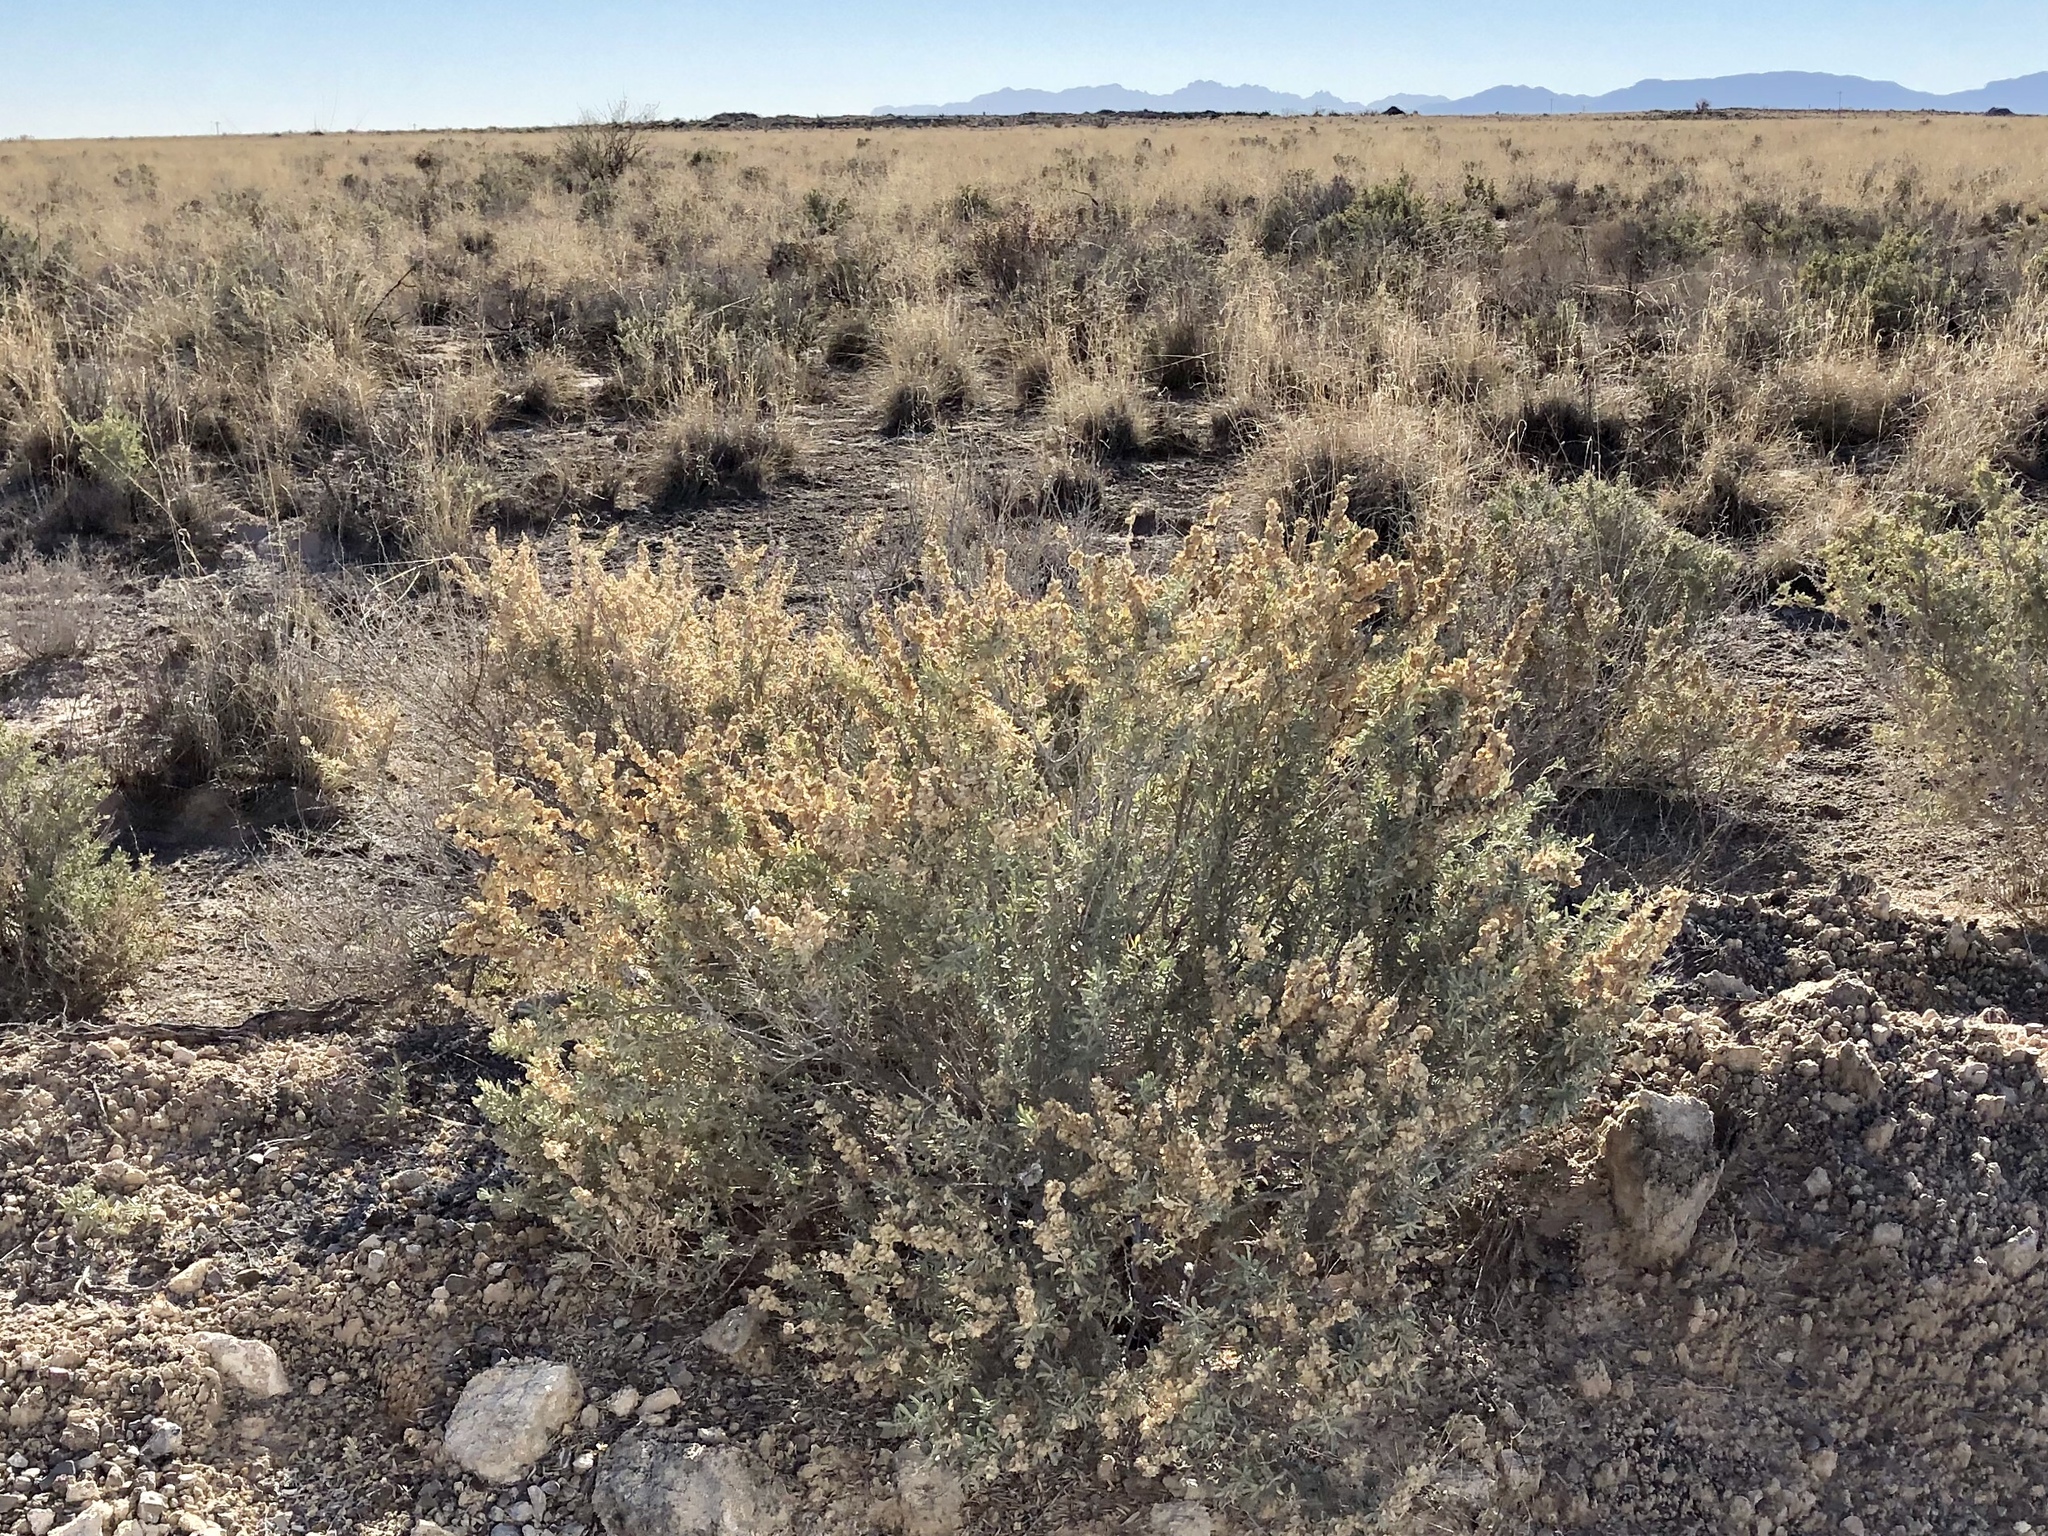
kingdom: Plantae
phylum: Tracheophyta
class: Magnoliopsida
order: Caryophyllales
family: Amaranthaceae
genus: Atriplex
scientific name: Atriplex canescens
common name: Four-wing saltbush
